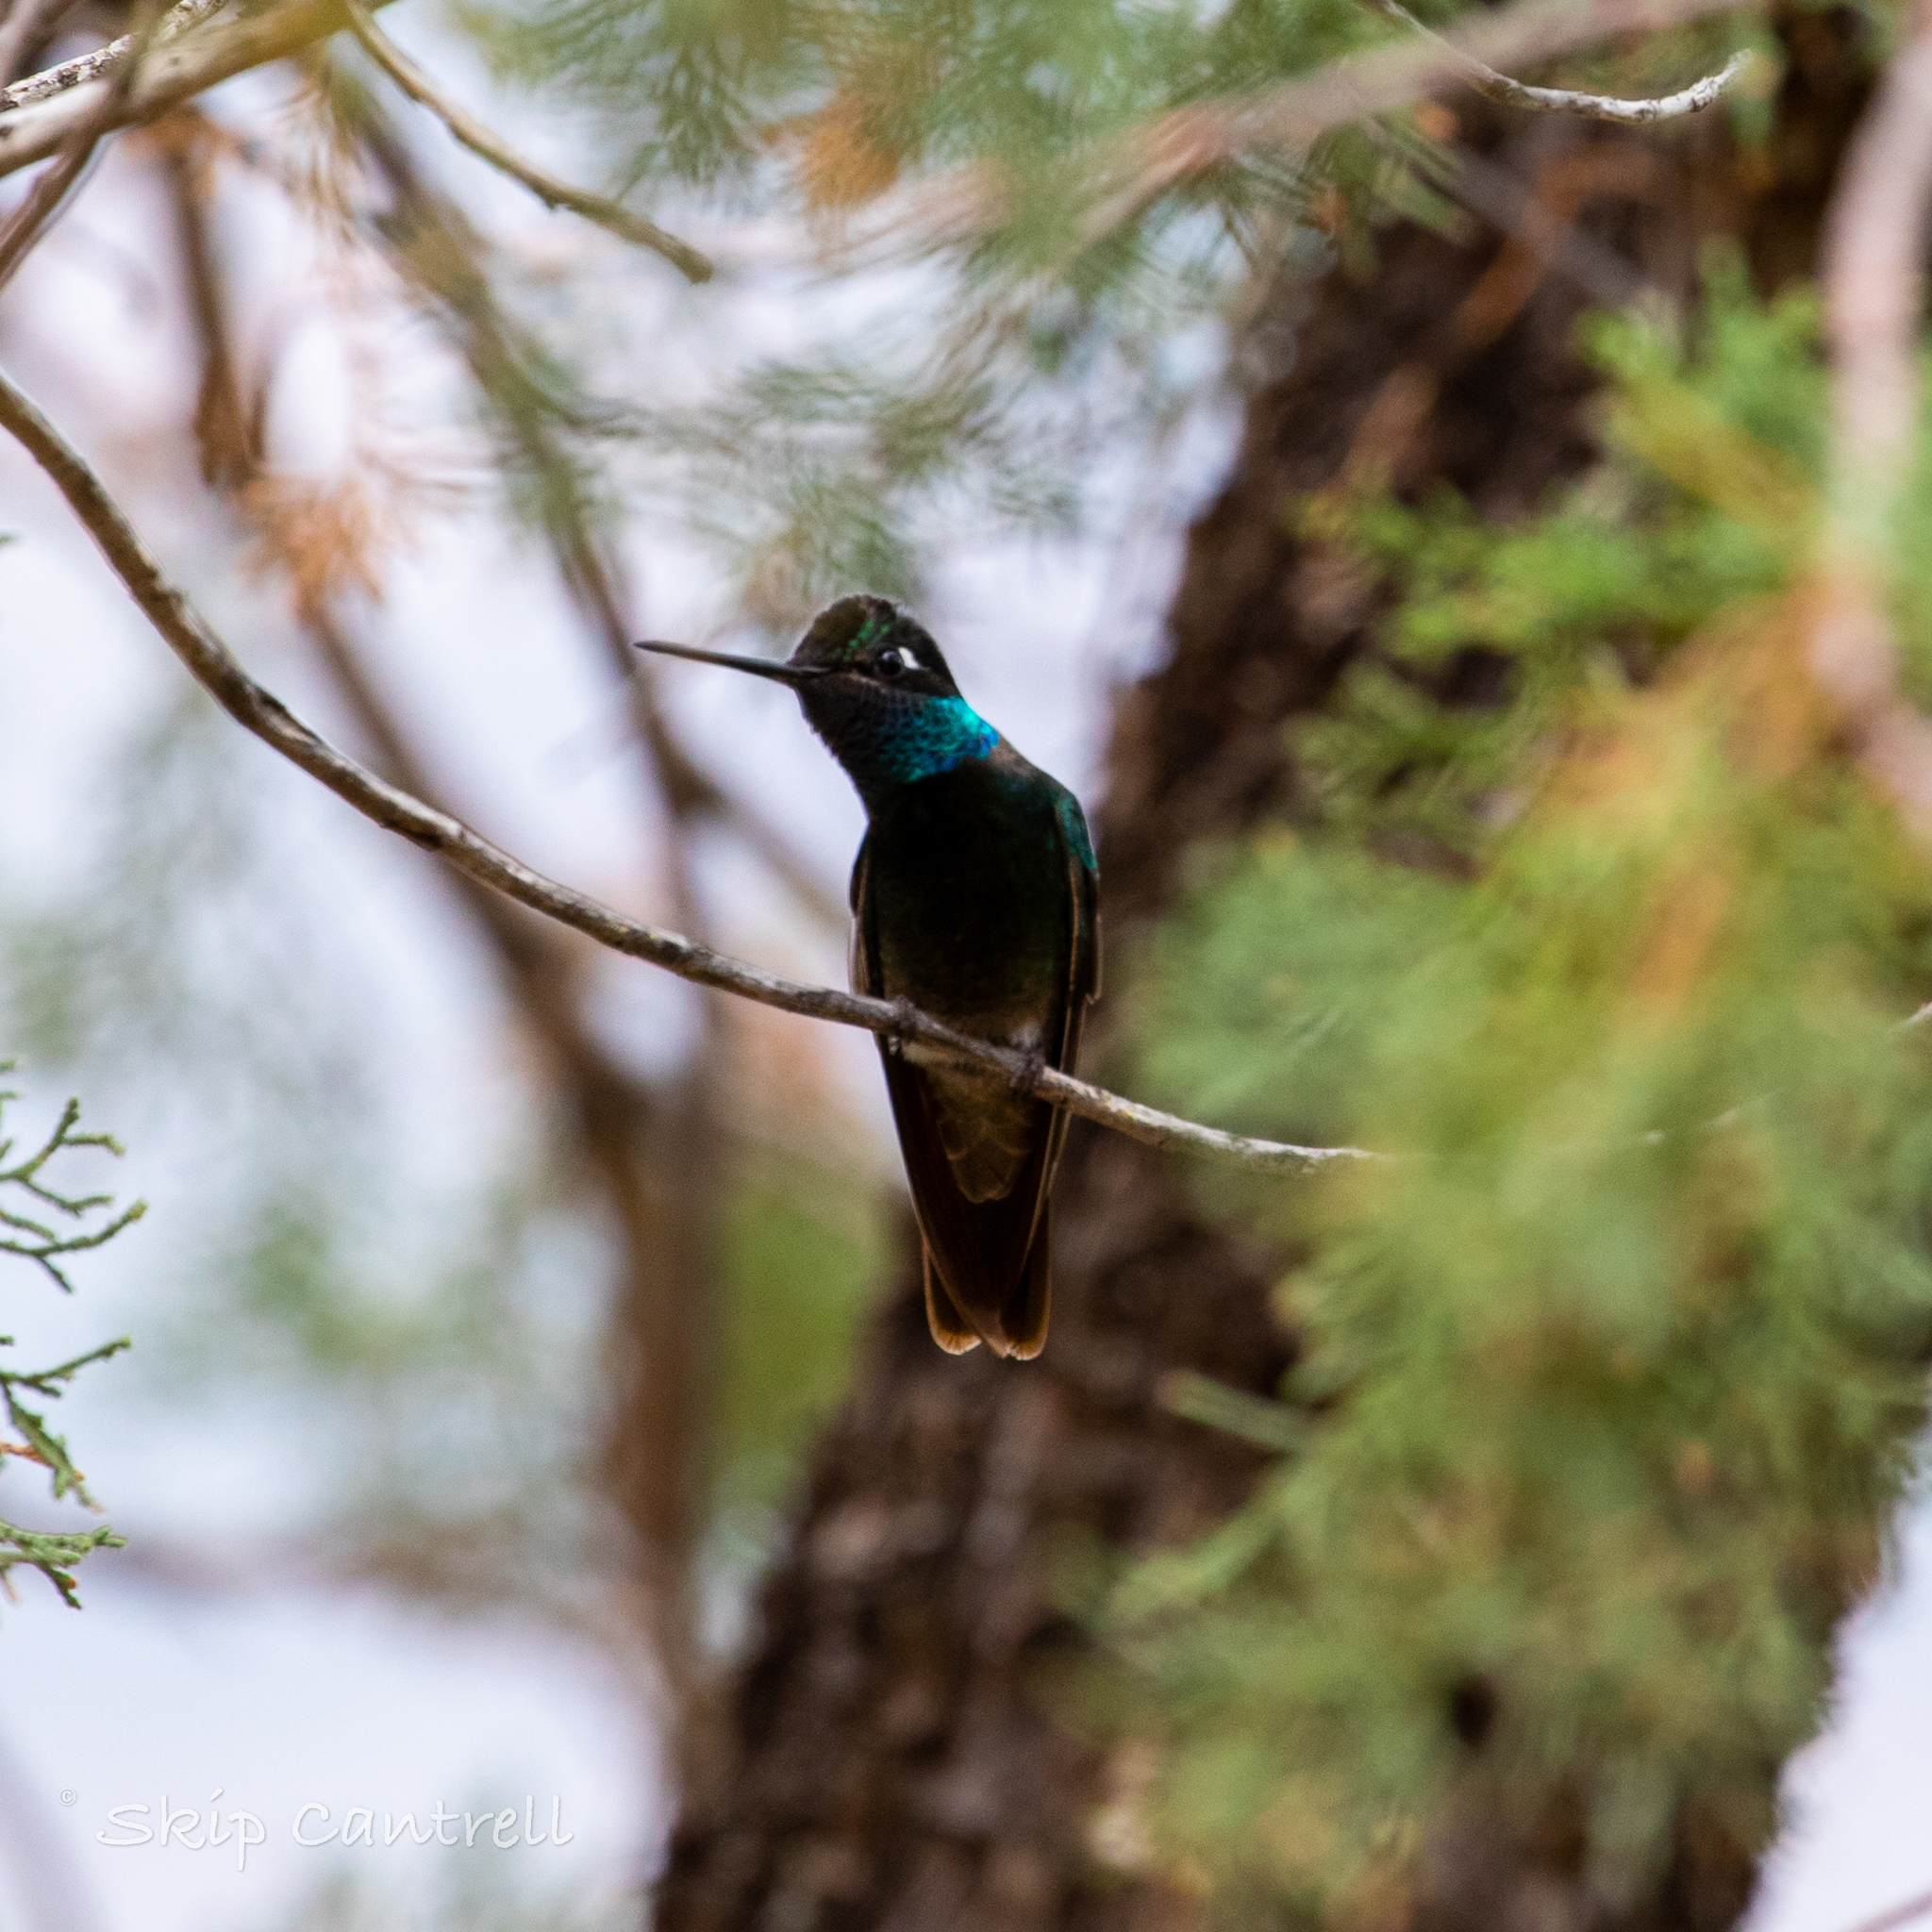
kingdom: Animalia
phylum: Chordata
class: Aves
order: Apodiformes
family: Trochilidae
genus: Eugenes
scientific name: Eugenes fulgens
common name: Magnificent hummingbird
